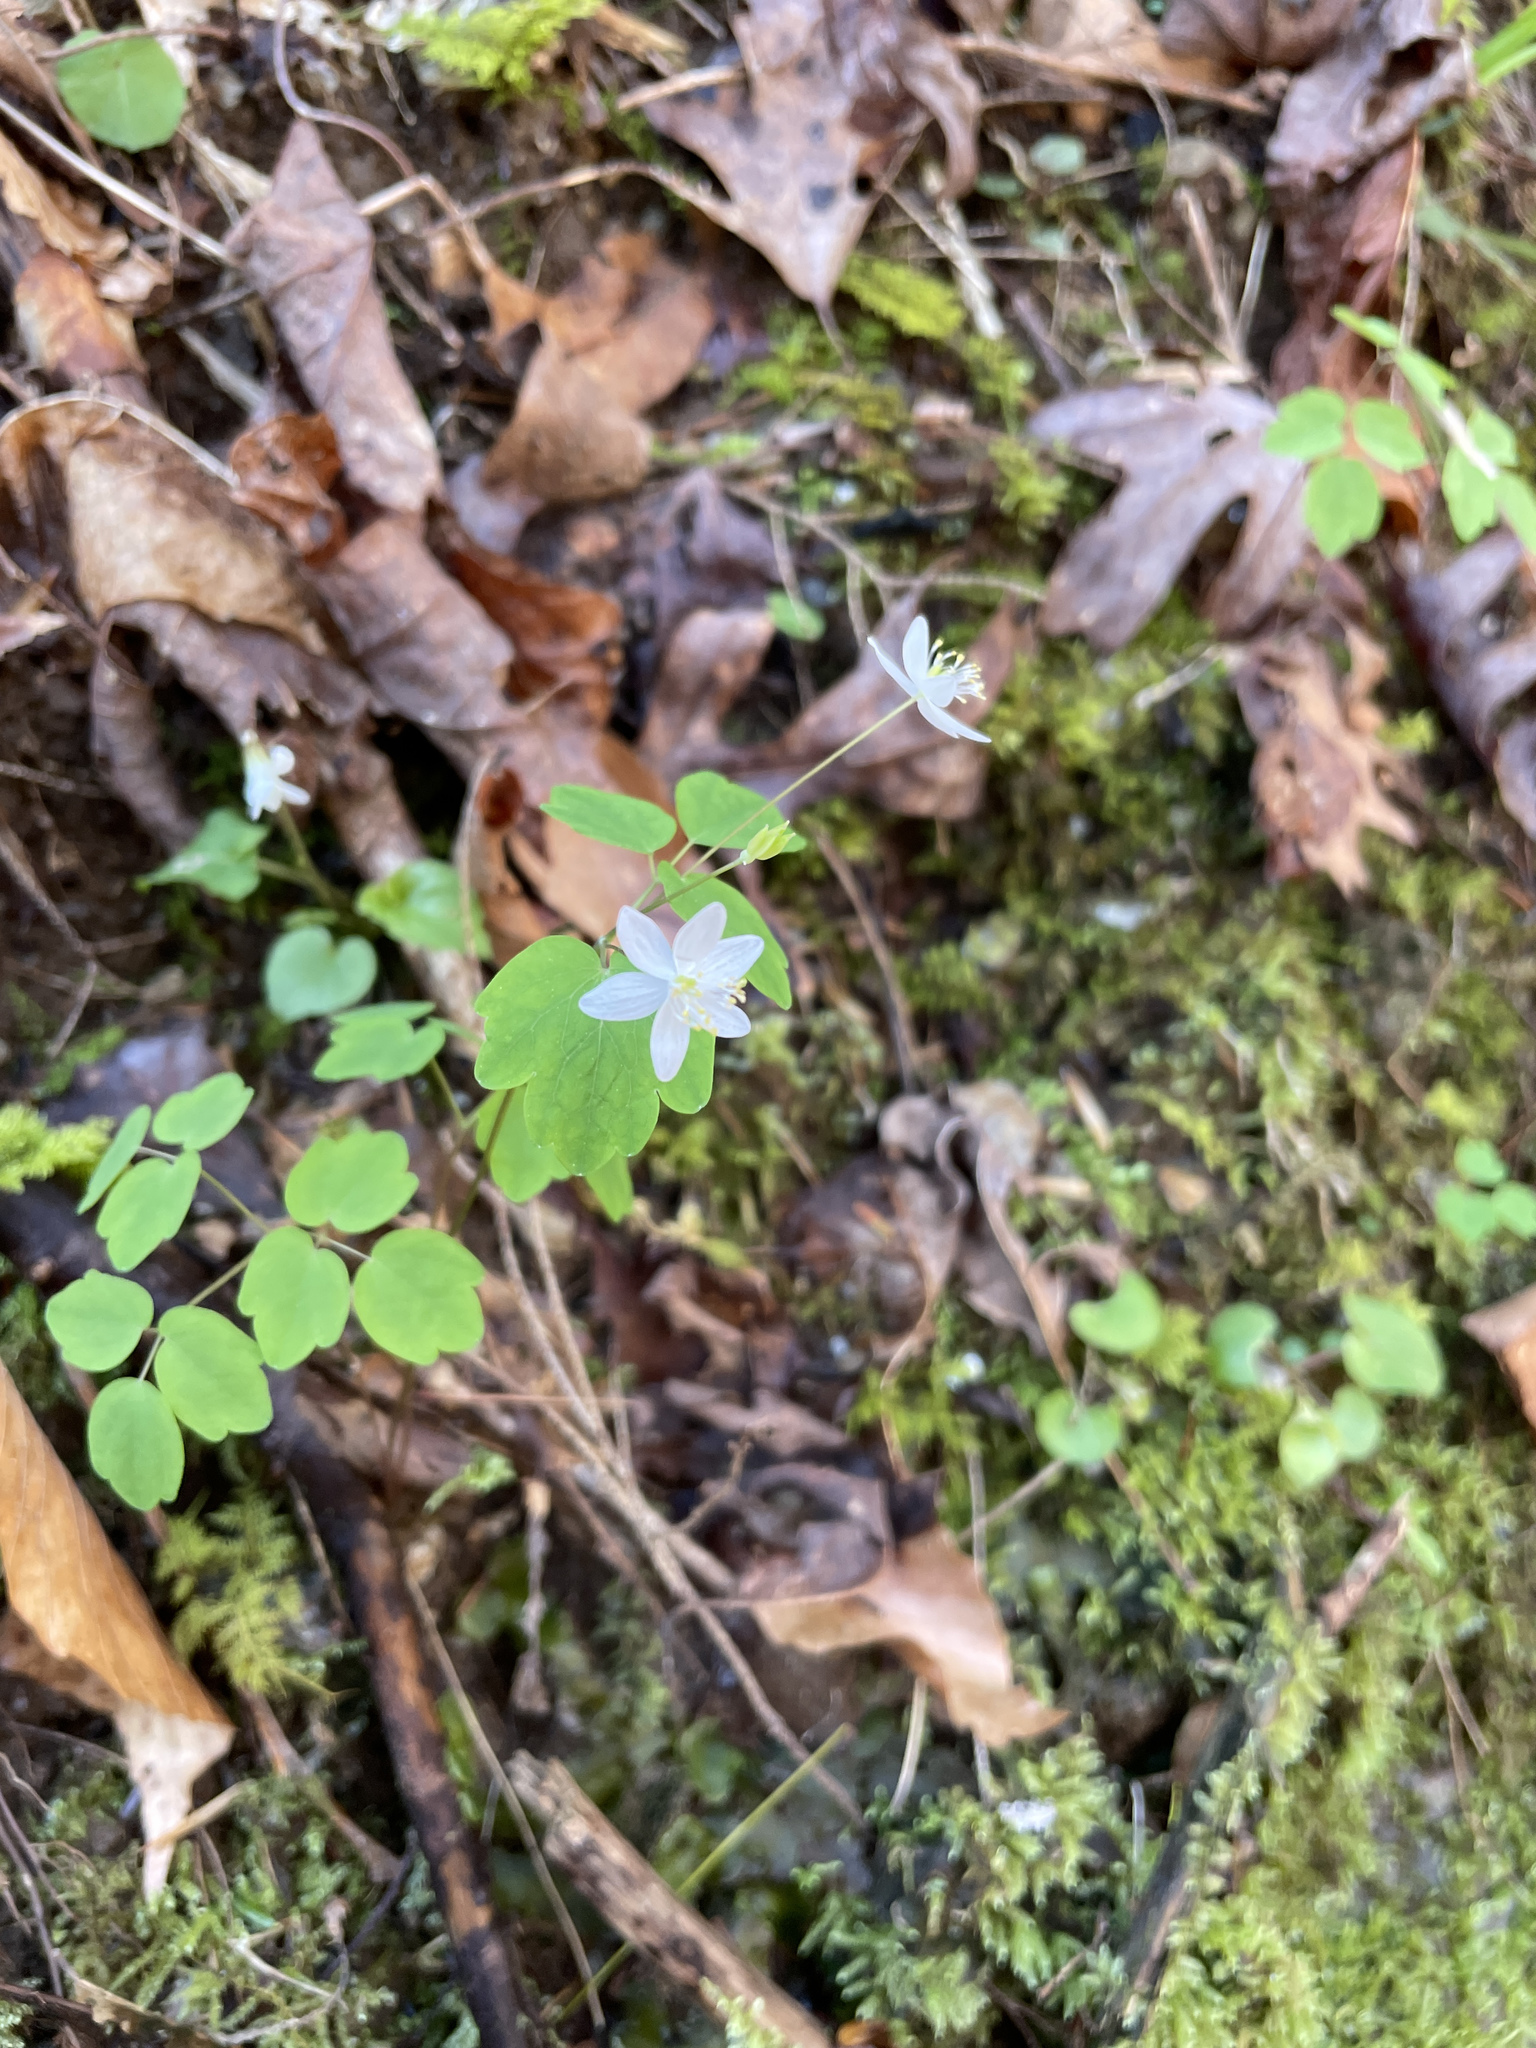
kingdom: Plantae
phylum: Tracheophyta
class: Magnoliopsida
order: Ranunculales
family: Ranunculaceae
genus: Thalictrum
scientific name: Thalictrum thalictroides
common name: Rue-anemone
